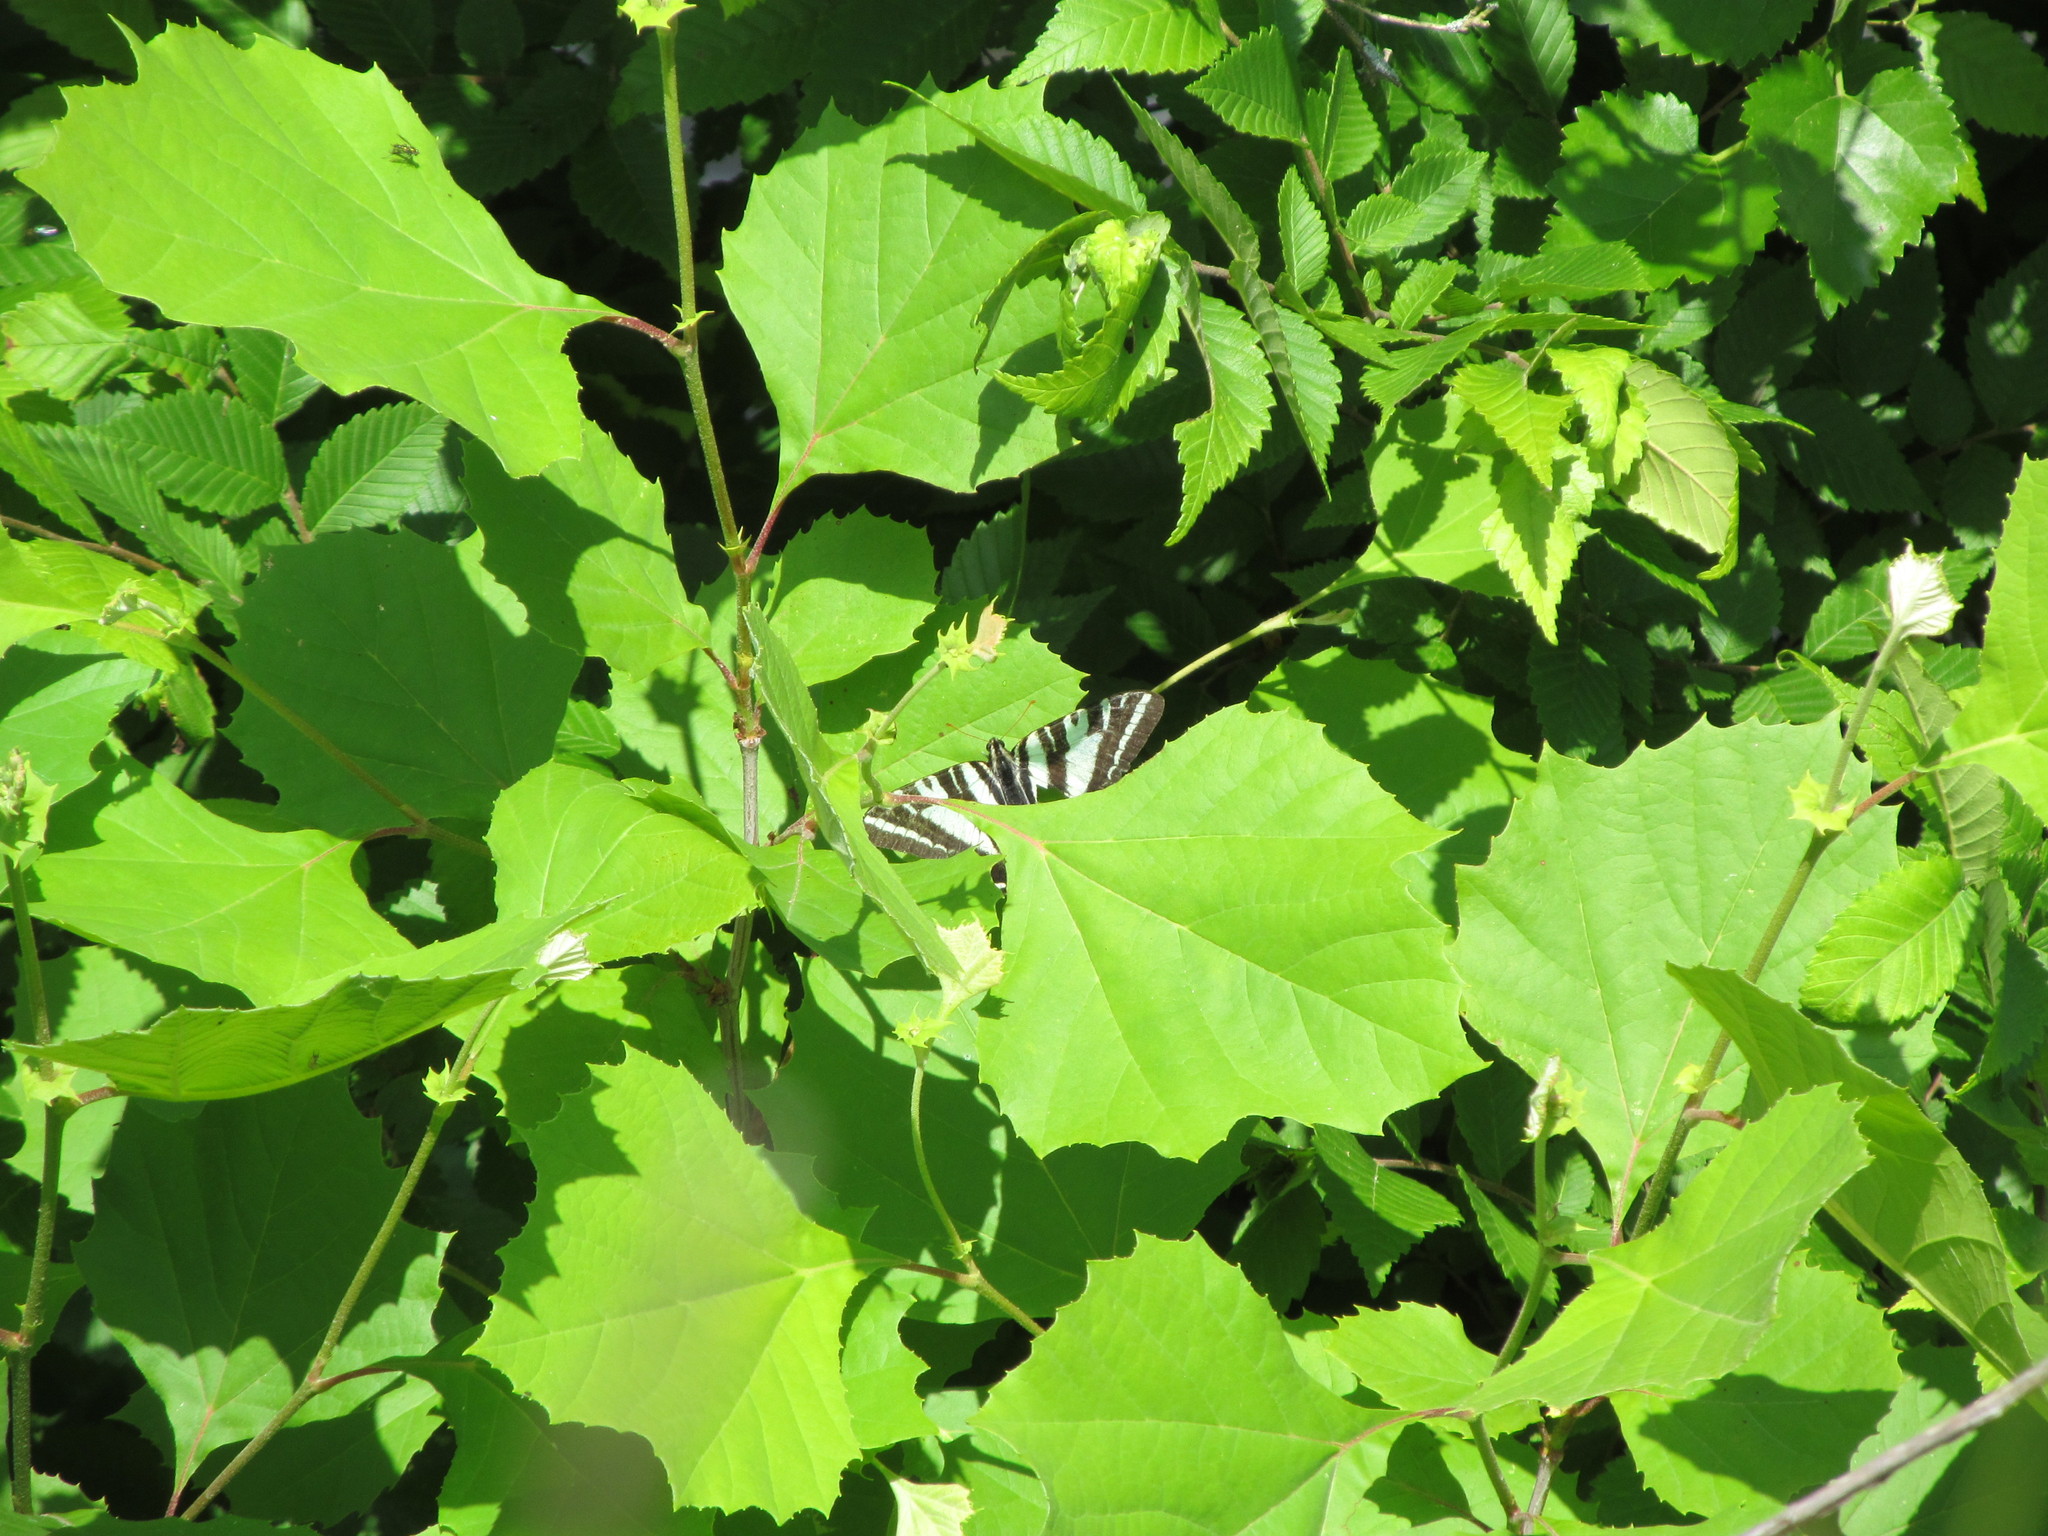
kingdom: Animalia
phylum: Arthropoda
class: Insecta
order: Lepidoptera
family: Papilionidae
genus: Protographium
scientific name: Protographium marcellus
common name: Zebra swallowtail
